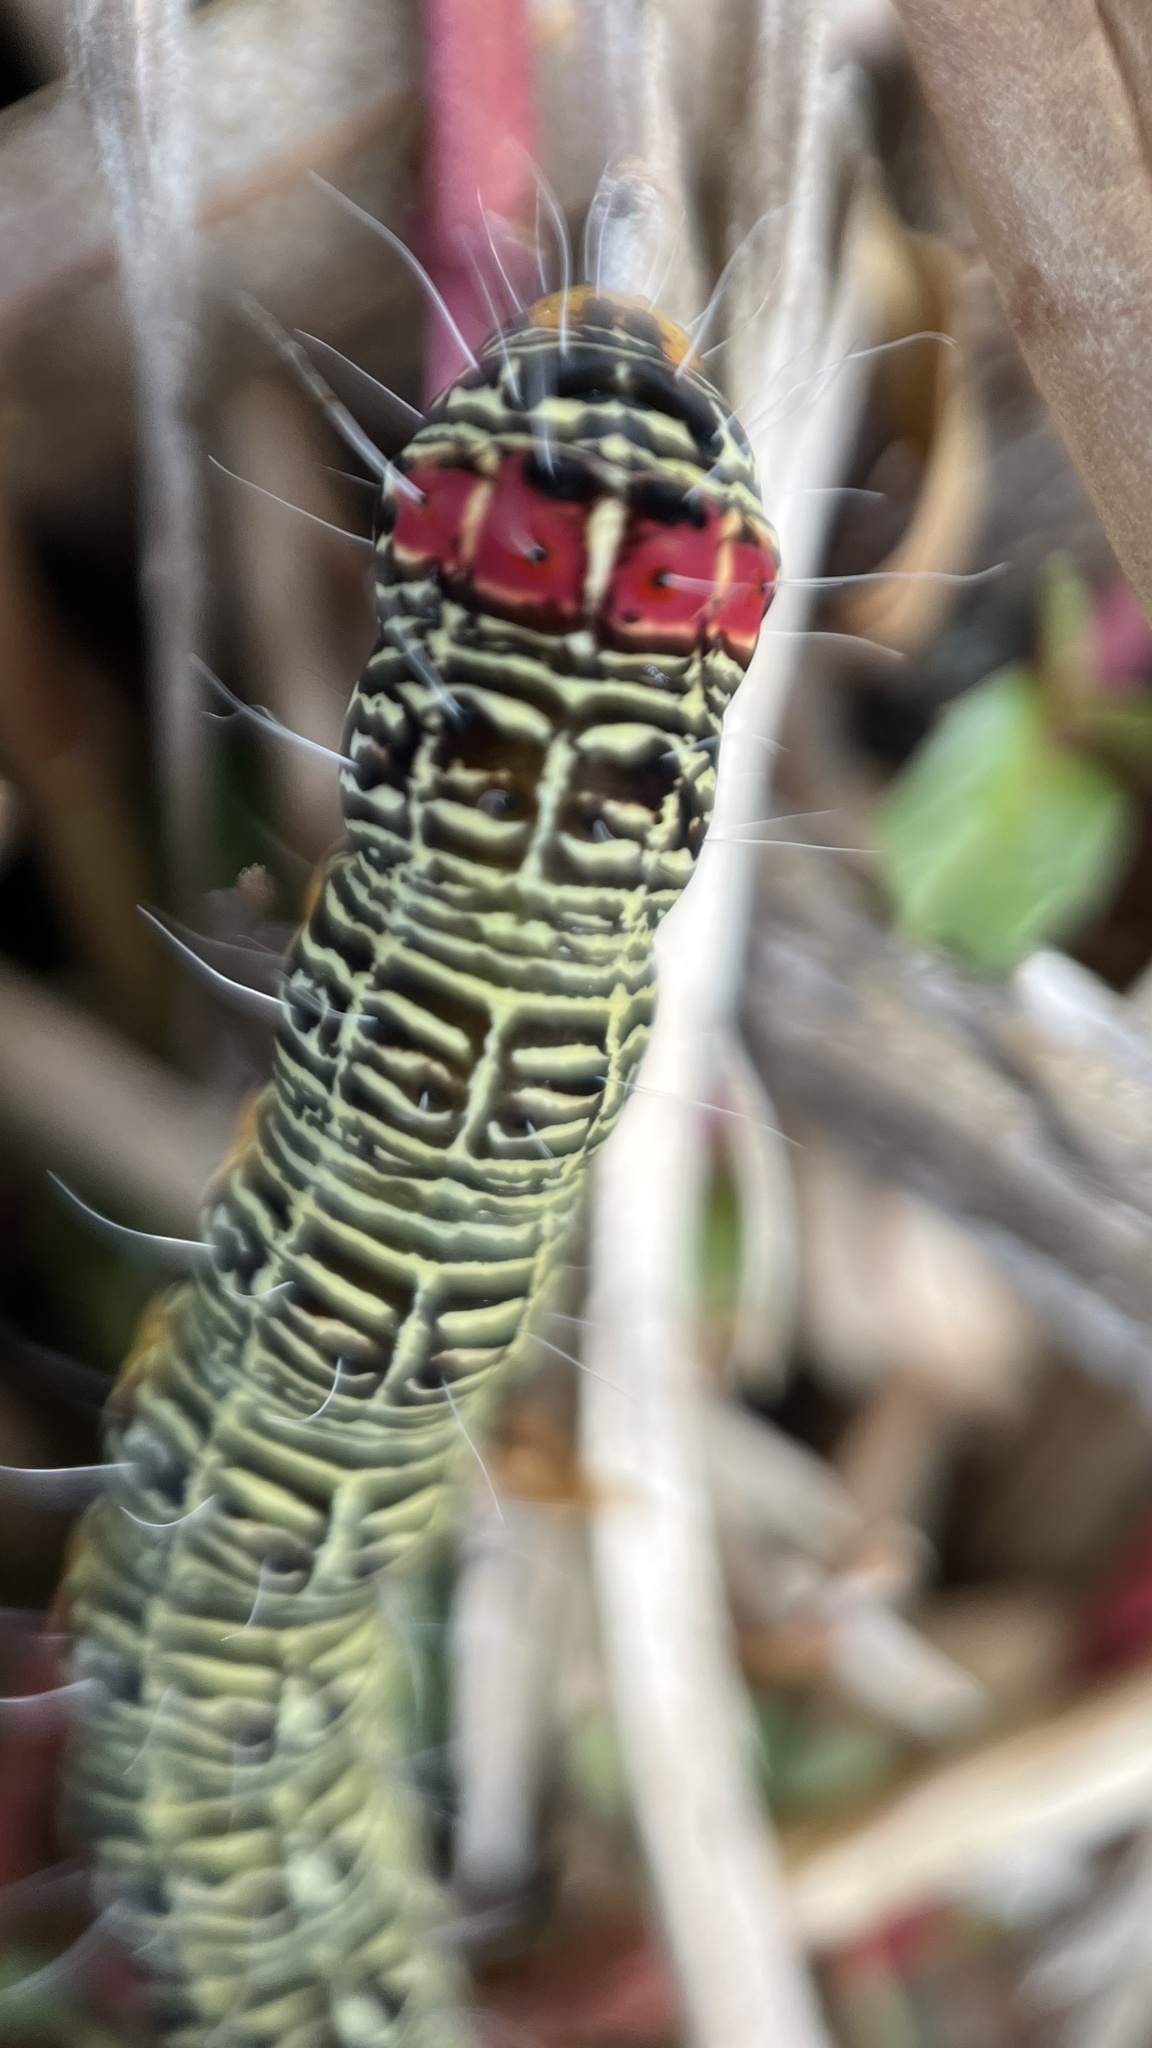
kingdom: Animalia
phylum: Arthropoda
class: Insecta
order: Lepidoptera
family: Noctuidae
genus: Phalaenoides
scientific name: Phalaenoides glycinae
